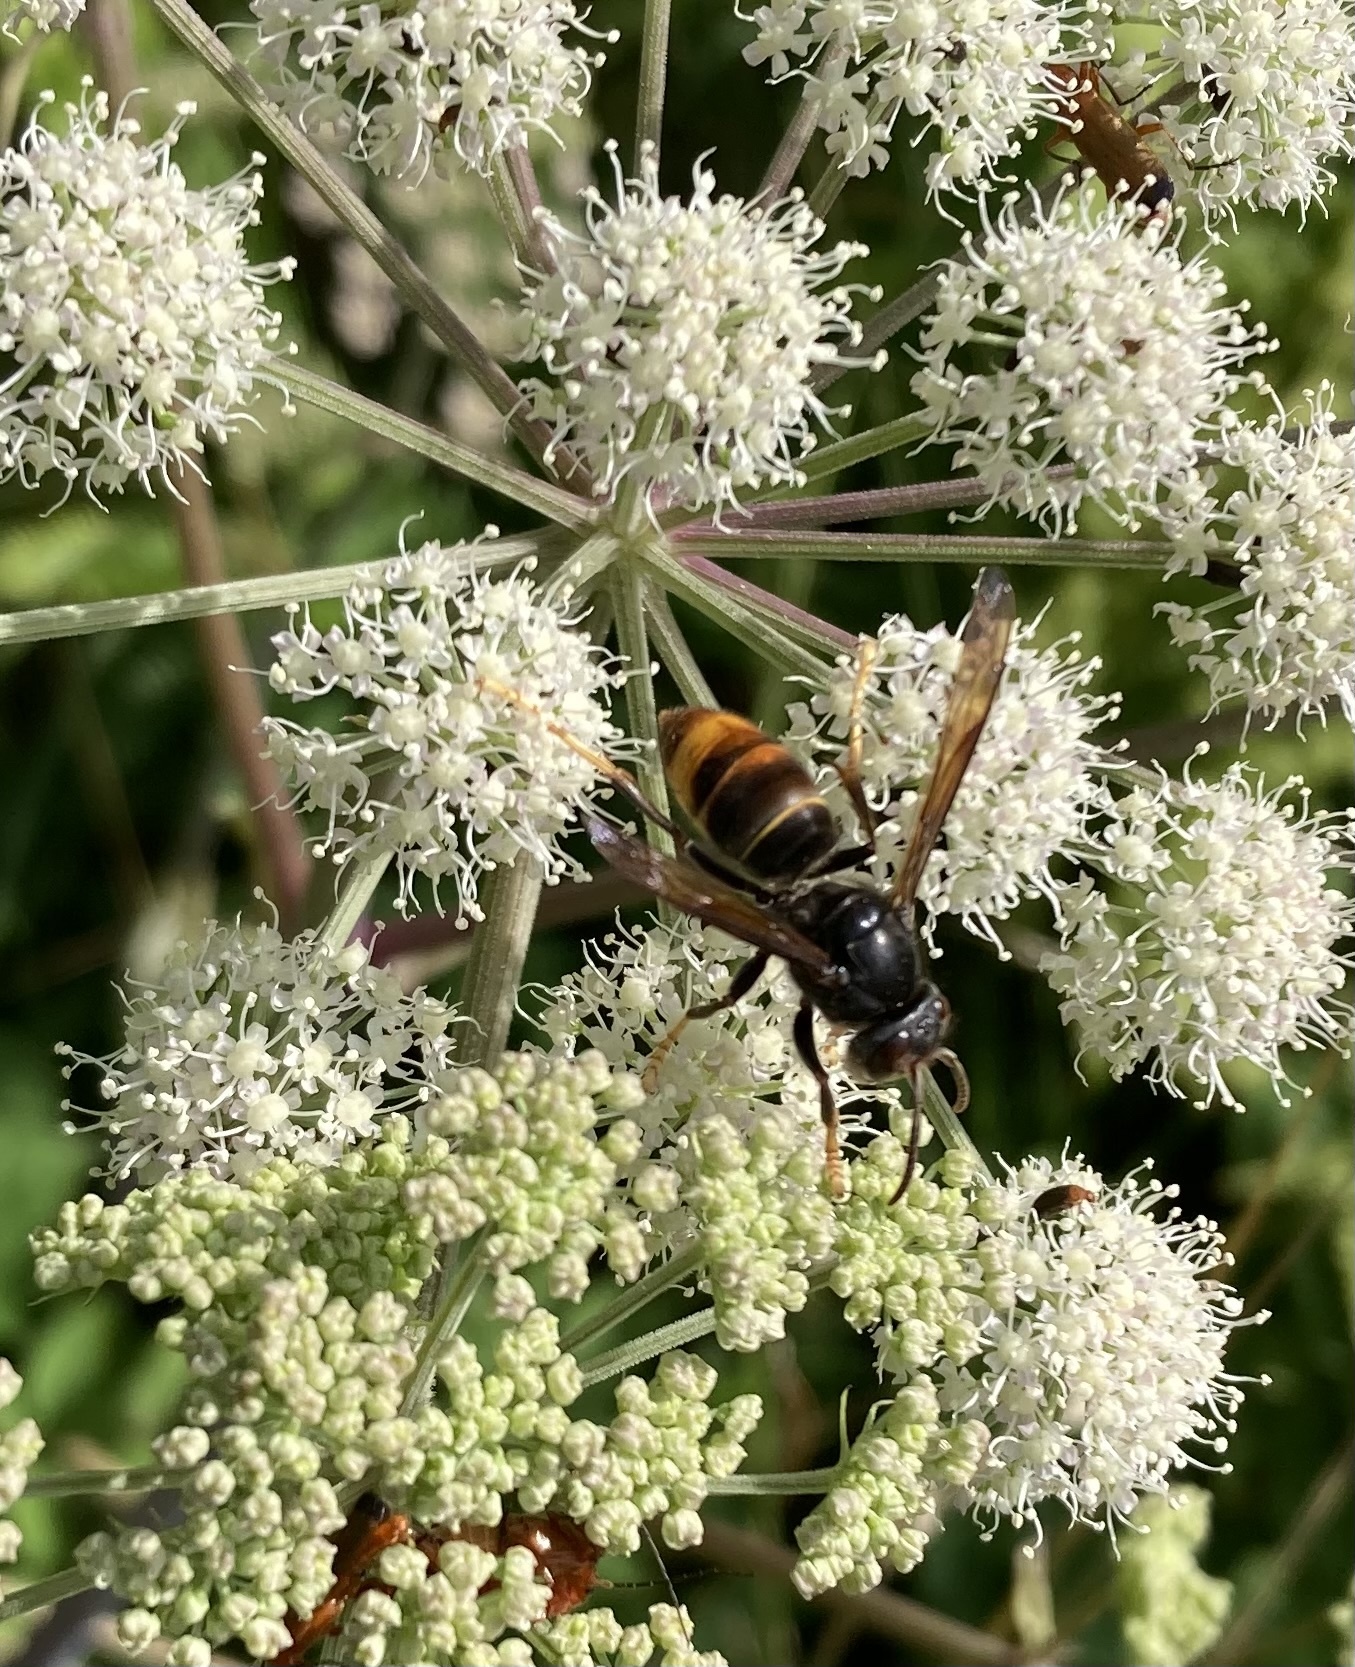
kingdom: Animalia
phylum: Arthropoda
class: Insecta
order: Hymenoptera
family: Vespidae
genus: Vespa
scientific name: Vespa velutina
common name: Asian hornet
